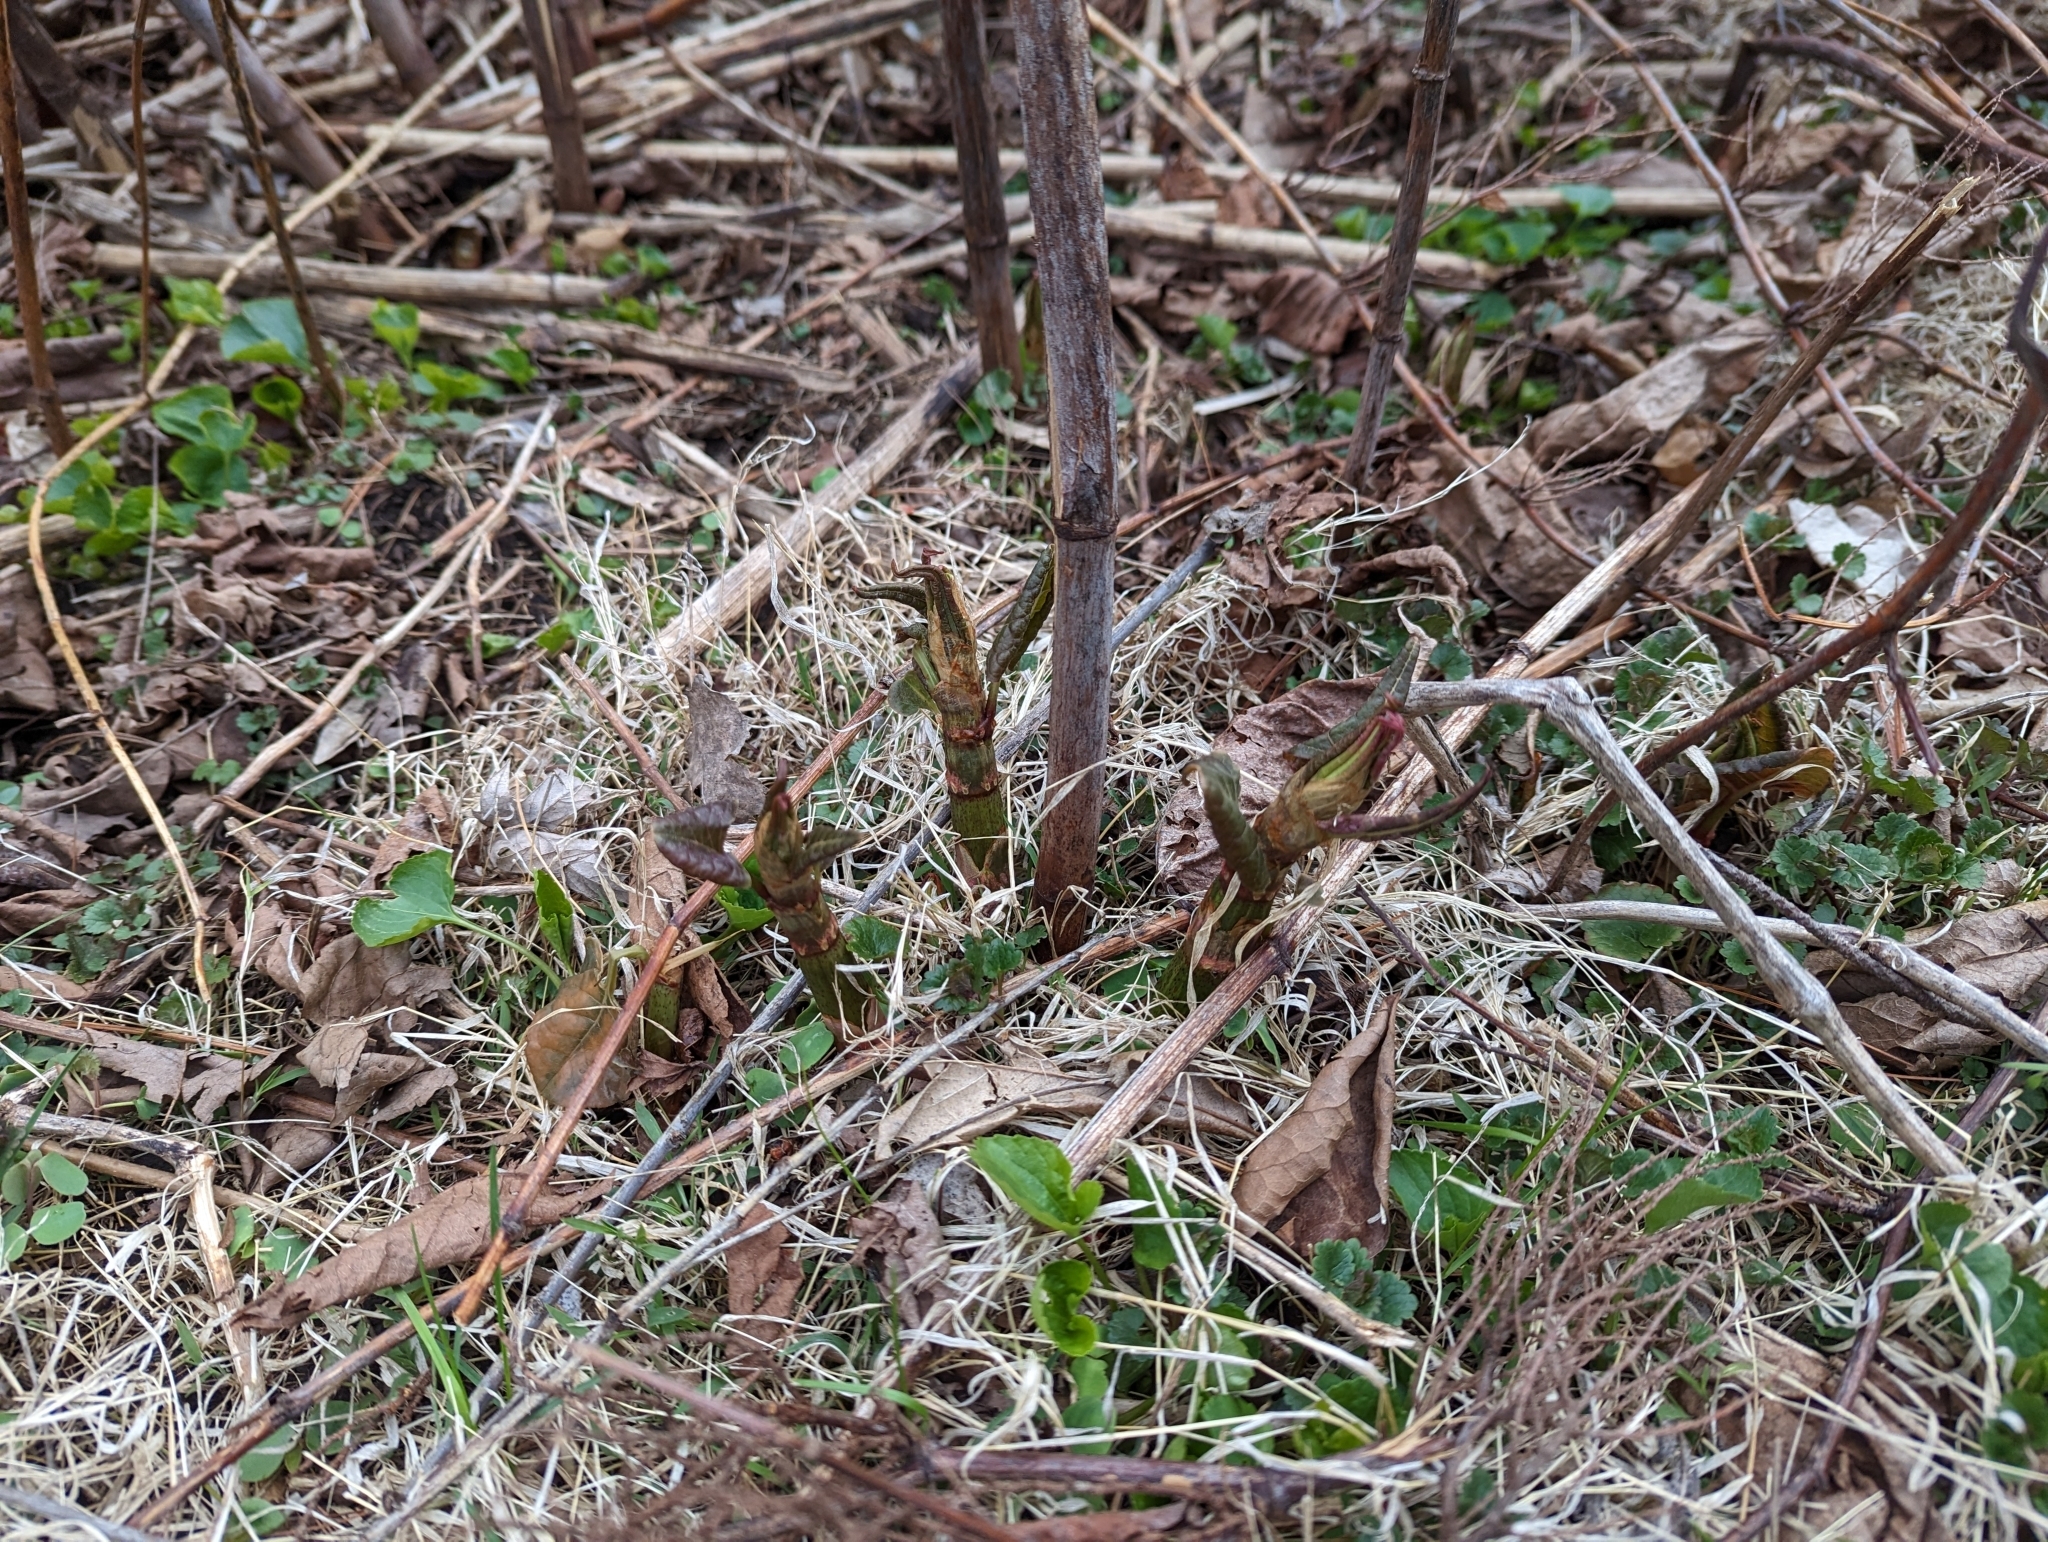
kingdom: Plantae
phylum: Tracheophyta
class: Magnoliopsida
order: Caryophyllales
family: Polygonaceae
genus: Reynoutria
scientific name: Reynoutria japonica
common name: Japanese knotweed
